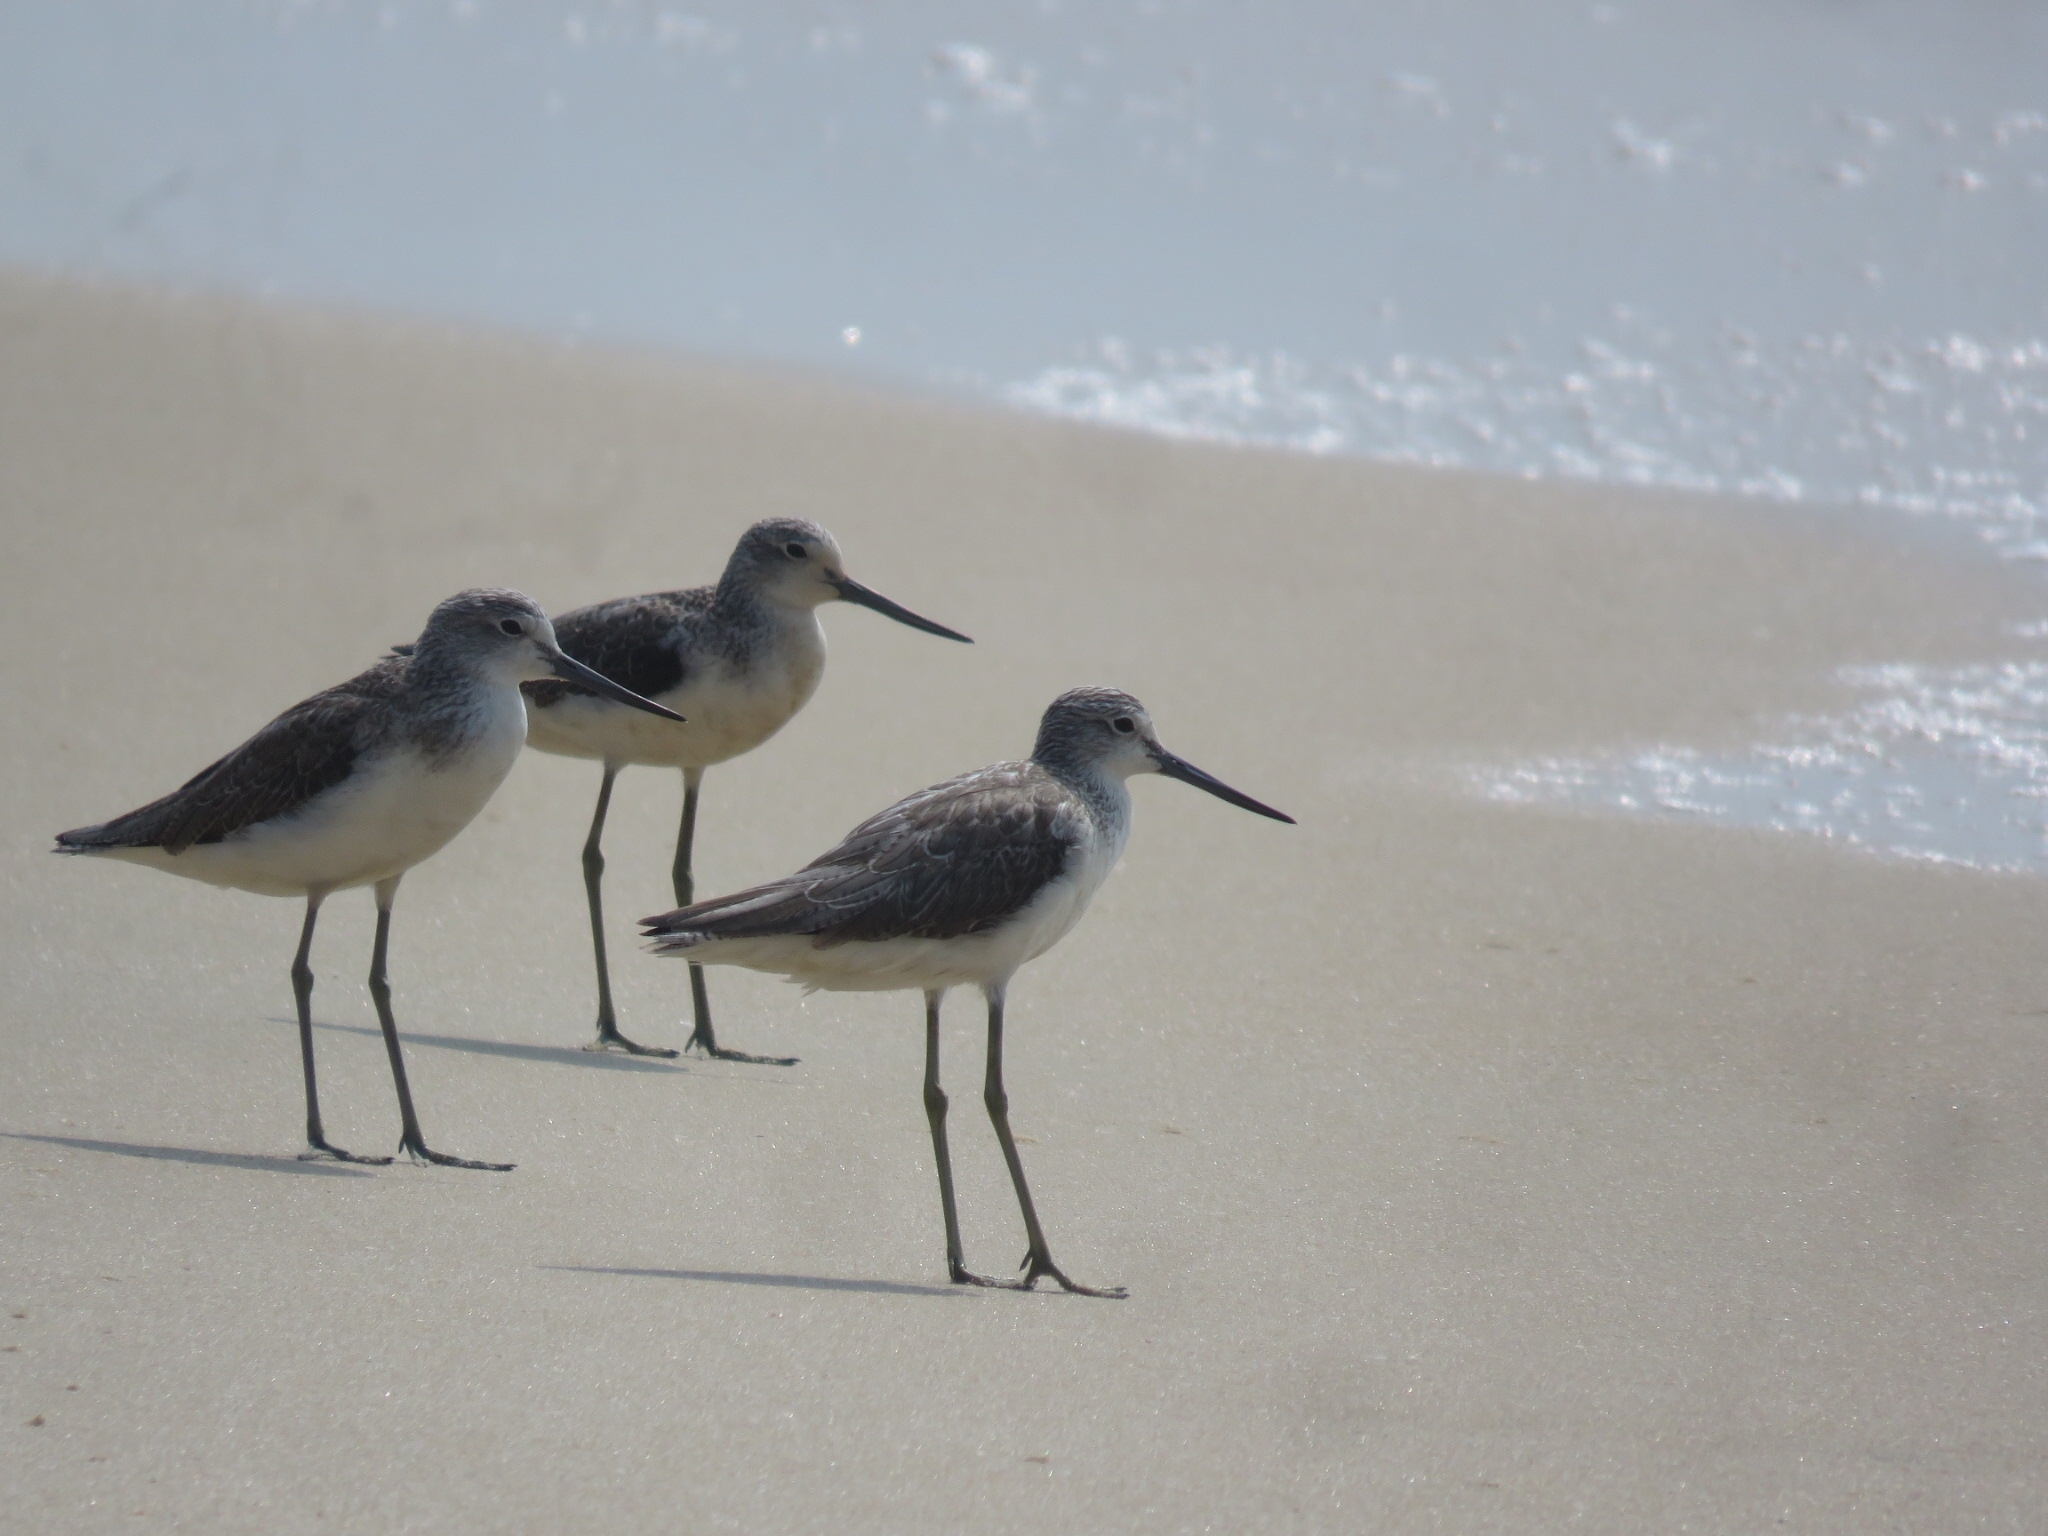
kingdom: Animalia
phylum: Chordata
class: Aves
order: Charadriiformes
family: Scolopacidae
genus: Tringa
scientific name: Tringa nebularia
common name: Common greenshank
